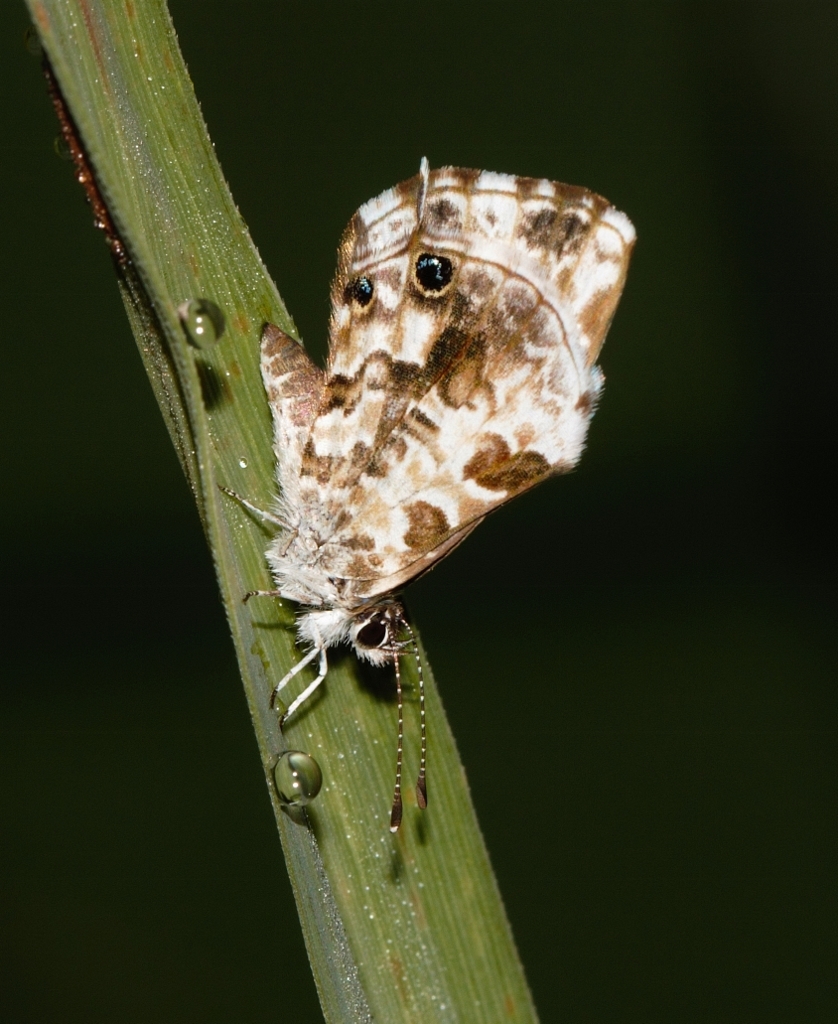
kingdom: Animalia
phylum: Arthropoda
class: Insecta
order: Lepidoptera
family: Lycaenidae
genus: Cacyreus
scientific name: Cacyreus lingeus
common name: Bush bronze
